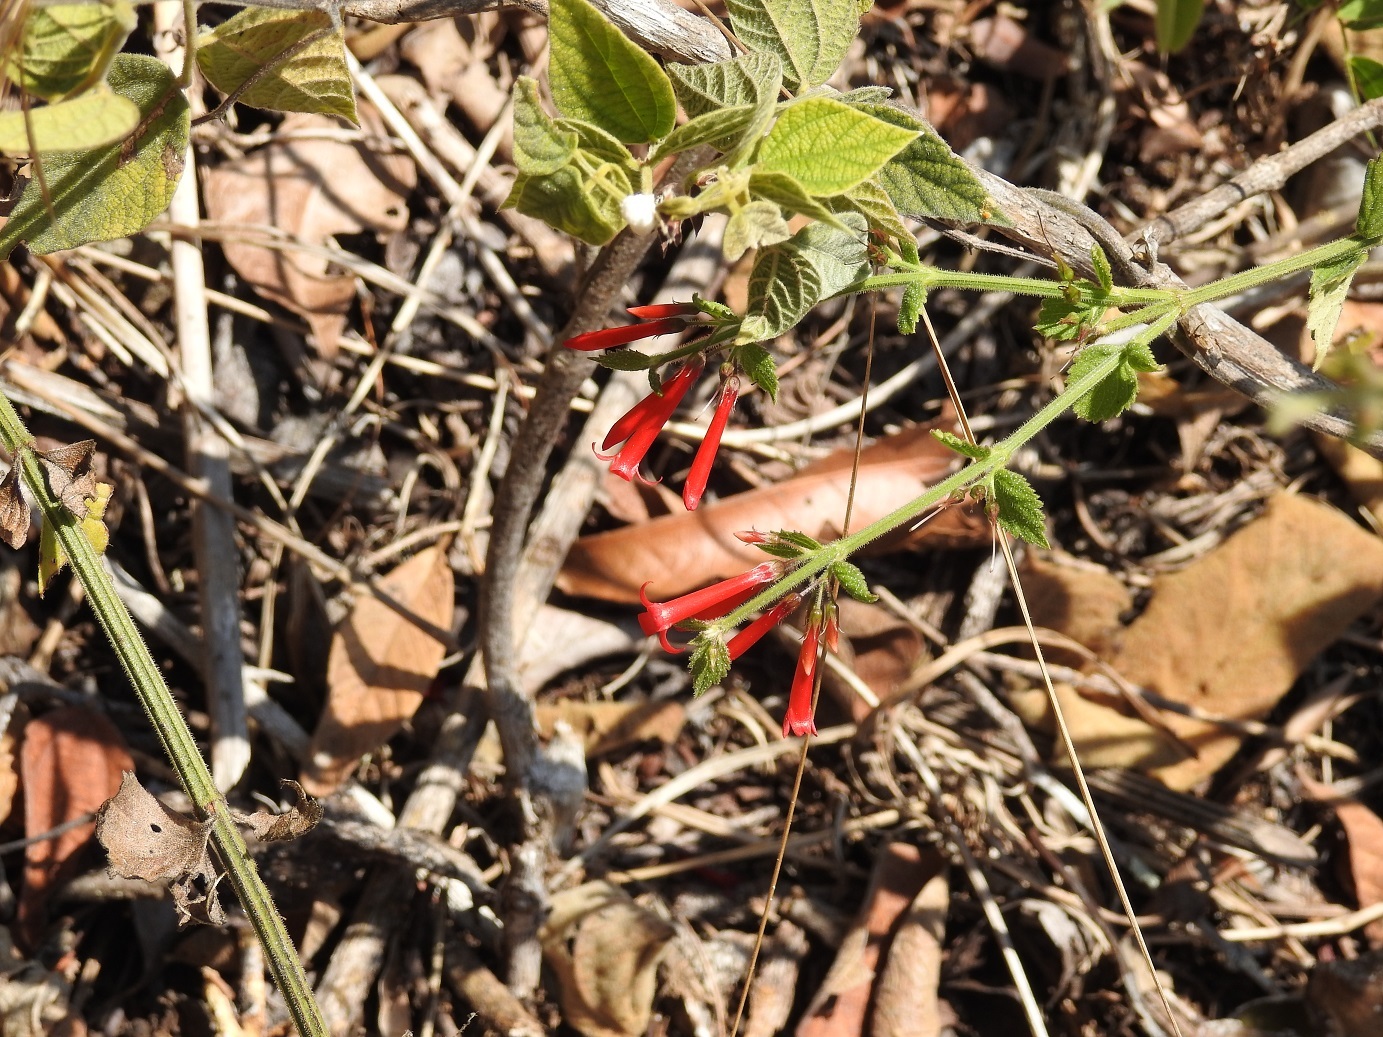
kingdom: Plantae
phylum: Tracheophyta
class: Magnoliopsida
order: Lamiales
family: Plantaginaceae
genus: Russelia
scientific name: Russelia sarmentosa
